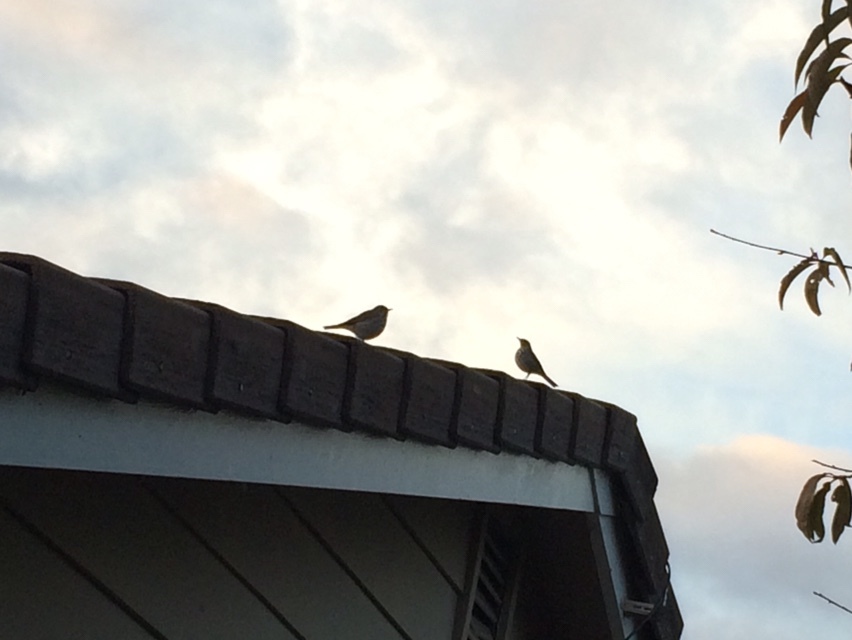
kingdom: Animalia
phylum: Chordata
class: Aves
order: Passeriformes
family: Turdidae
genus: Catharus
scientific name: Catharus guttatus
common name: Hermit thrush
